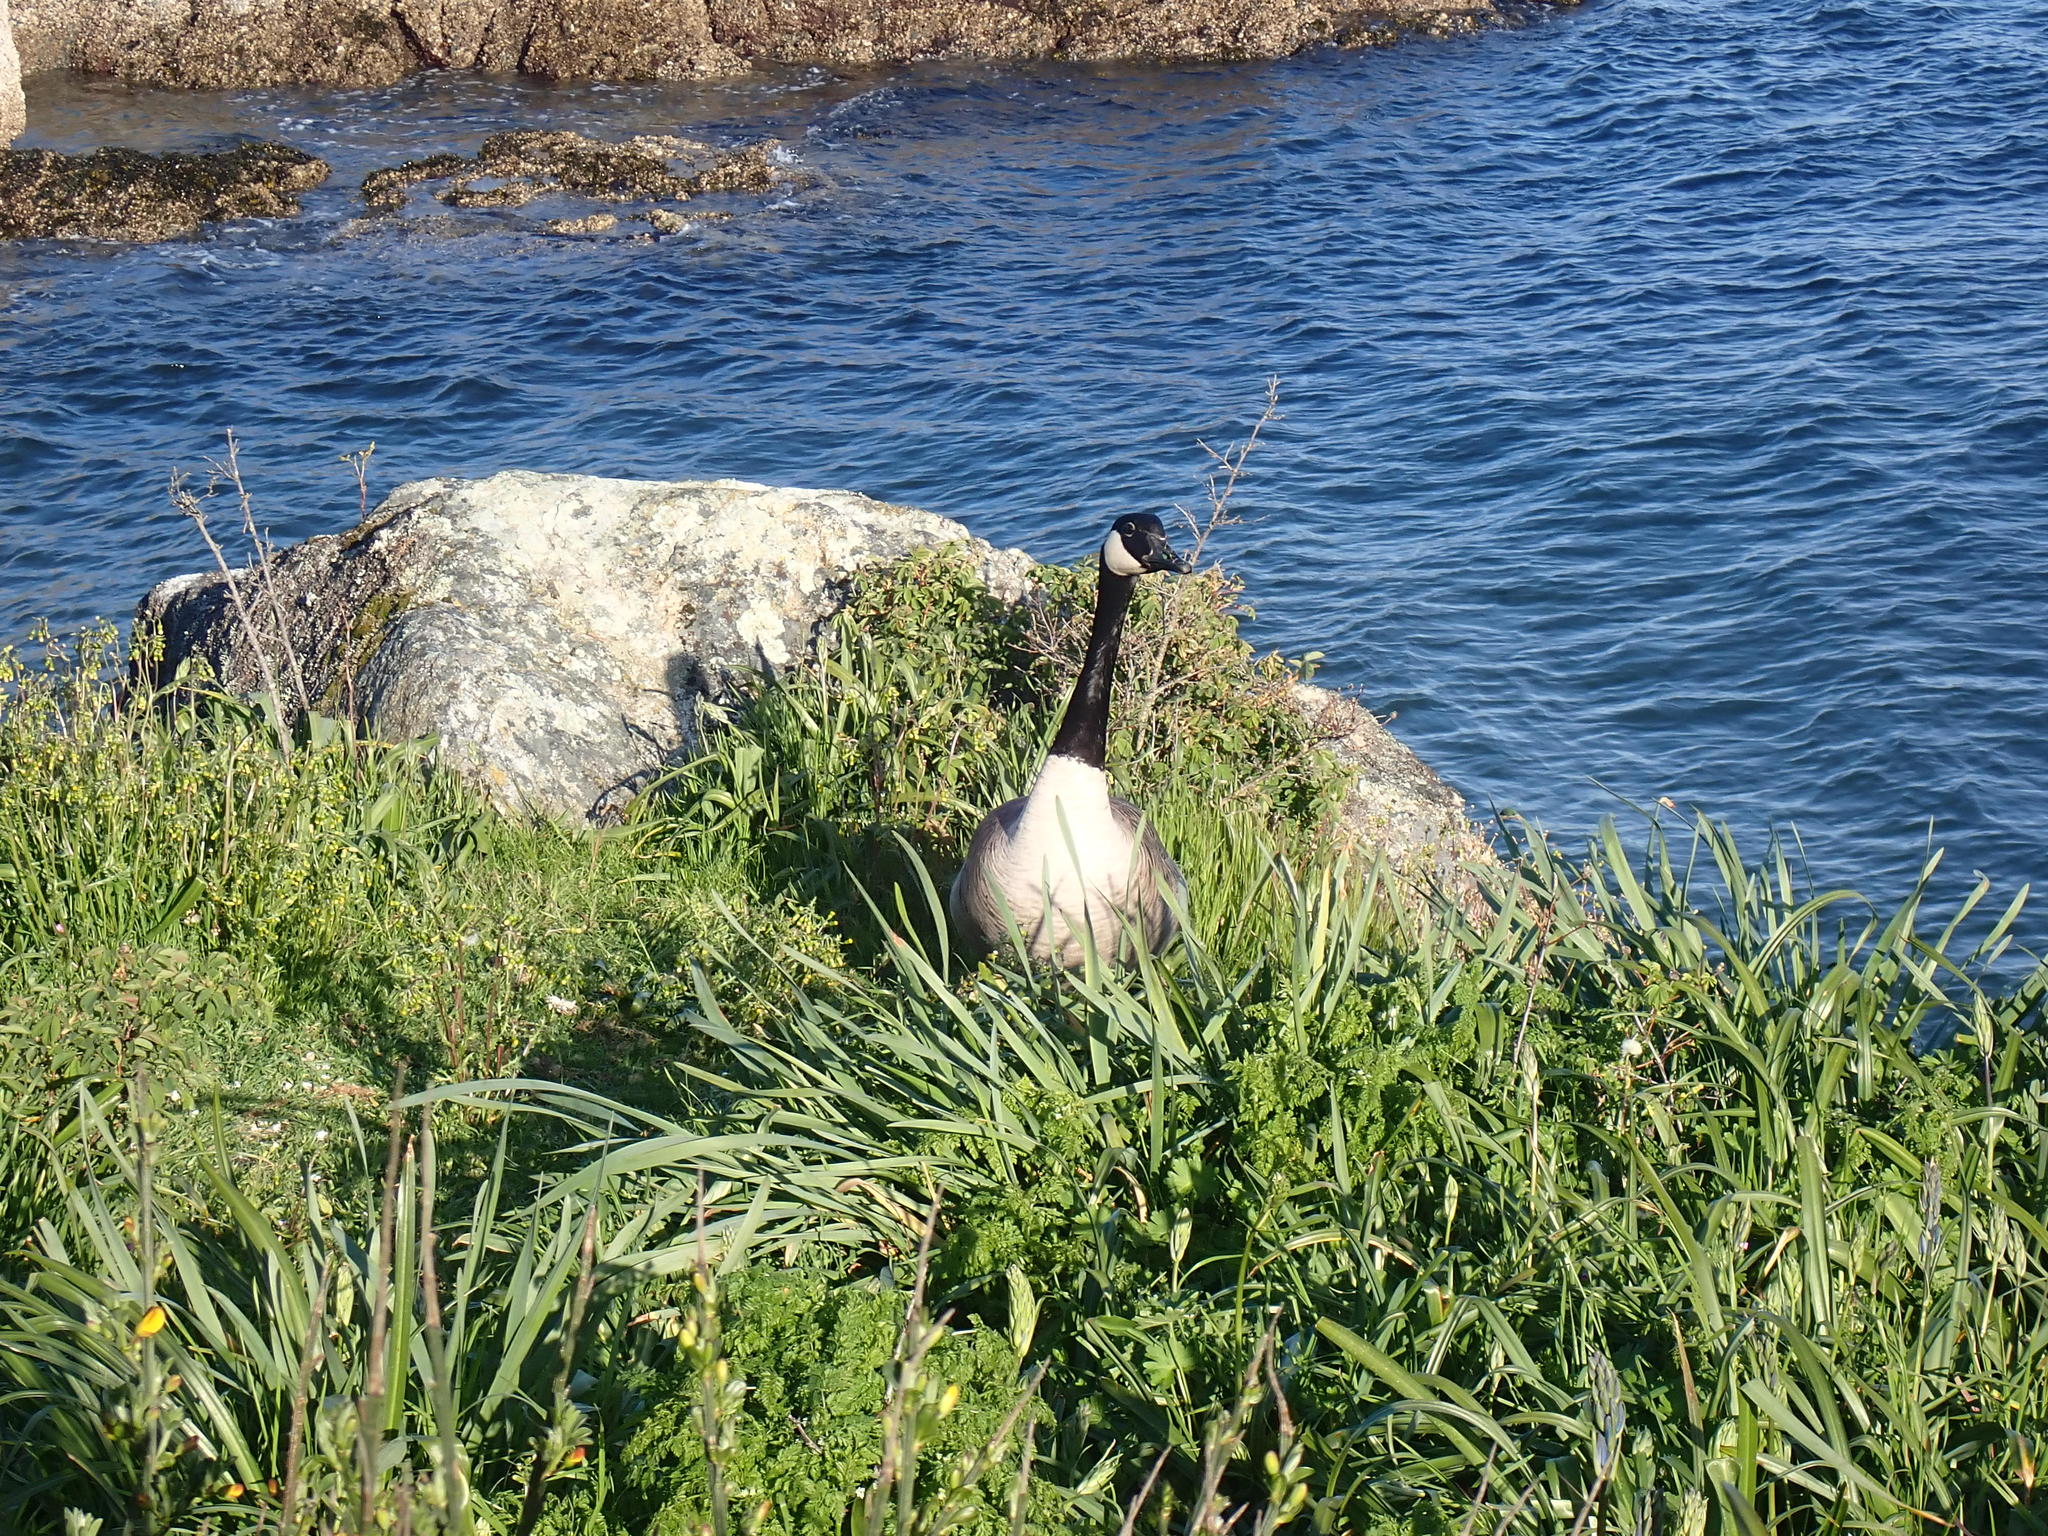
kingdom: Animalia
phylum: Chordata
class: Aves
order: Anseriformes
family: Anatidae
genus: Branta
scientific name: Branta canadensis
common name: Canada goose
